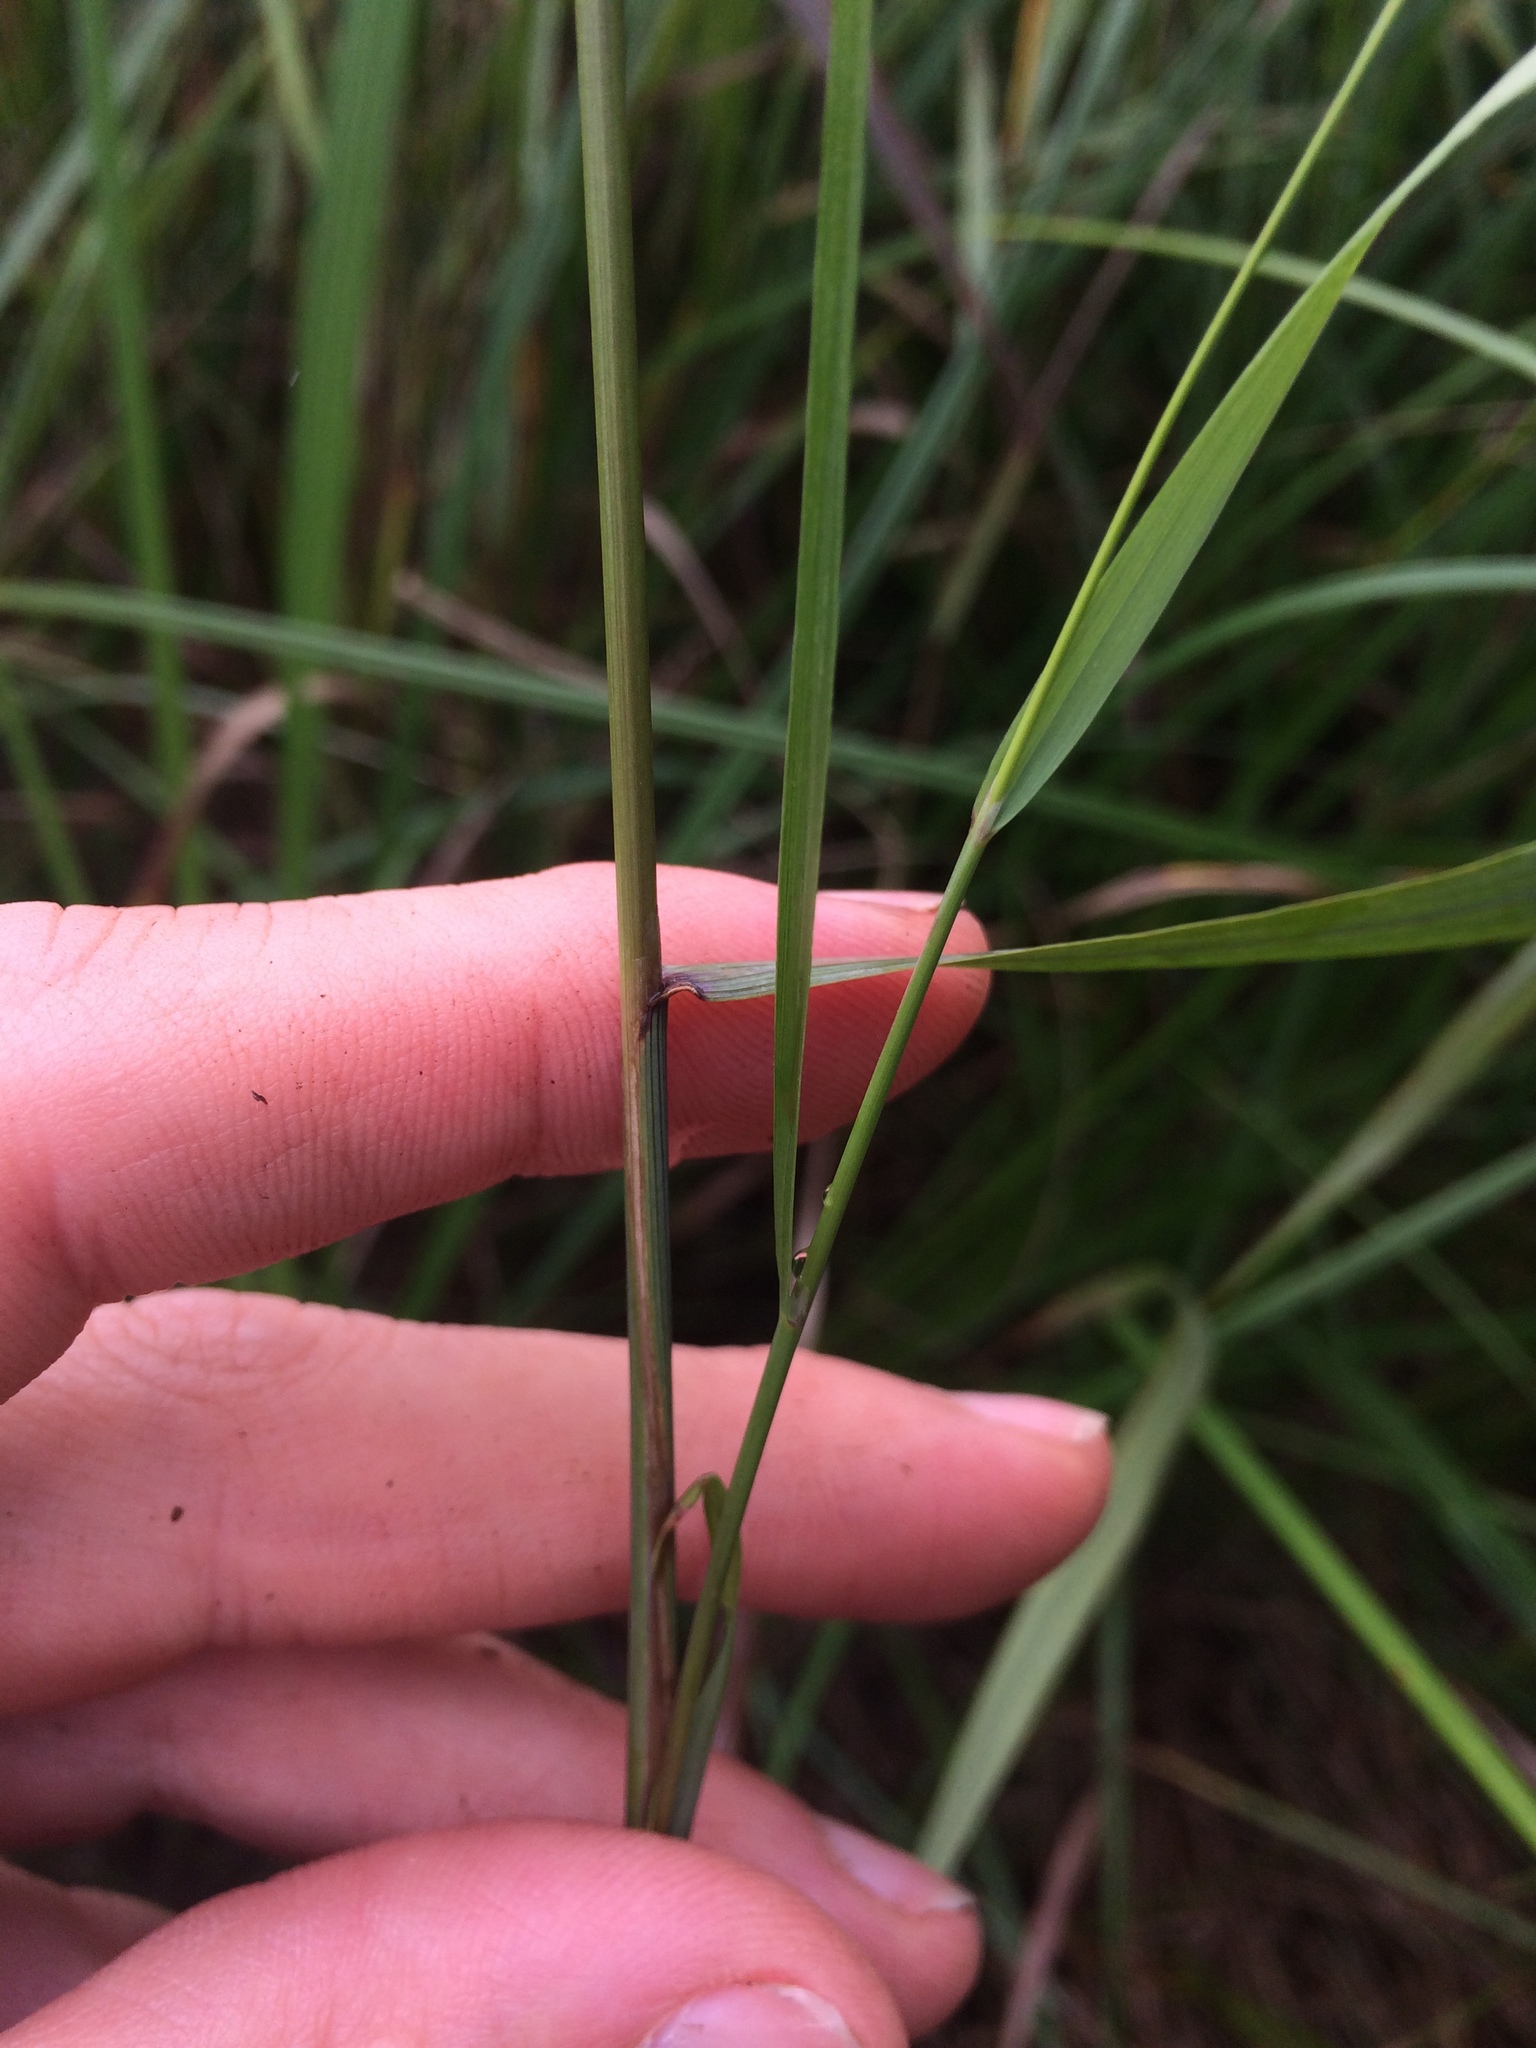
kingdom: Plantae
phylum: Tracheophyta
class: Liliopsida
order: Poales
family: Poaceae
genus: Calamagrostis
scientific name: Calamagrostis canadensis
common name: Canada bluejoint
